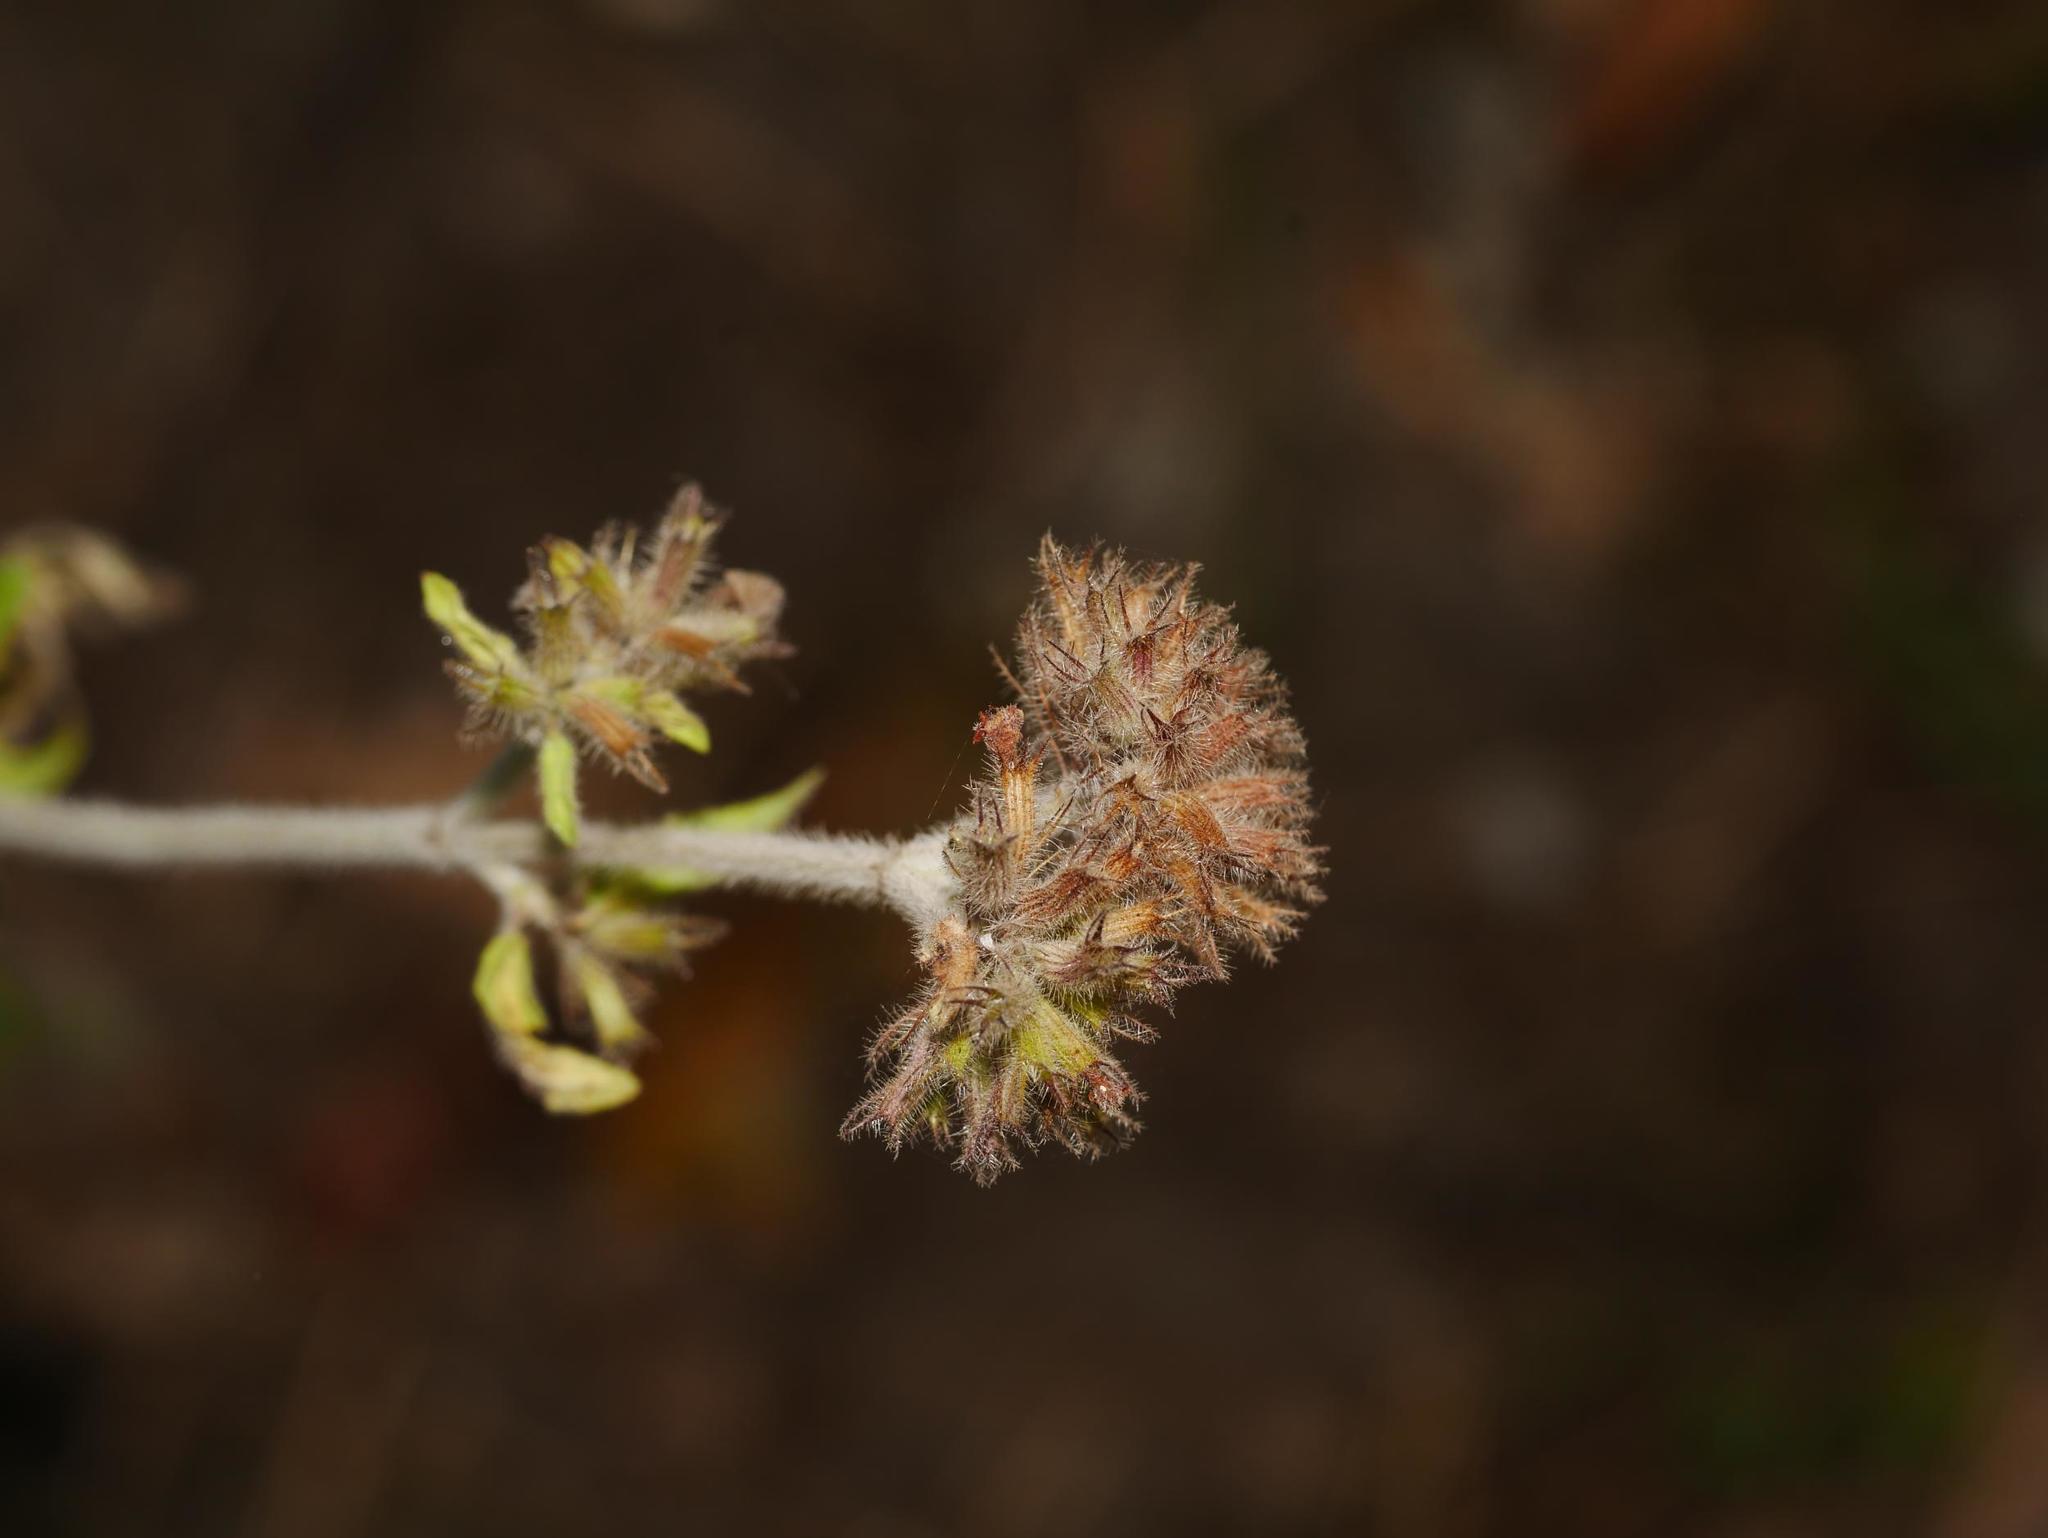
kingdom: Plantae
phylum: Tracheophyta
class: Magnoliopsida
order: Lamiales
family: Lamiaceae
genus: Origanum
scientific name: Origanum vulgare
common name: Wild marjoram
